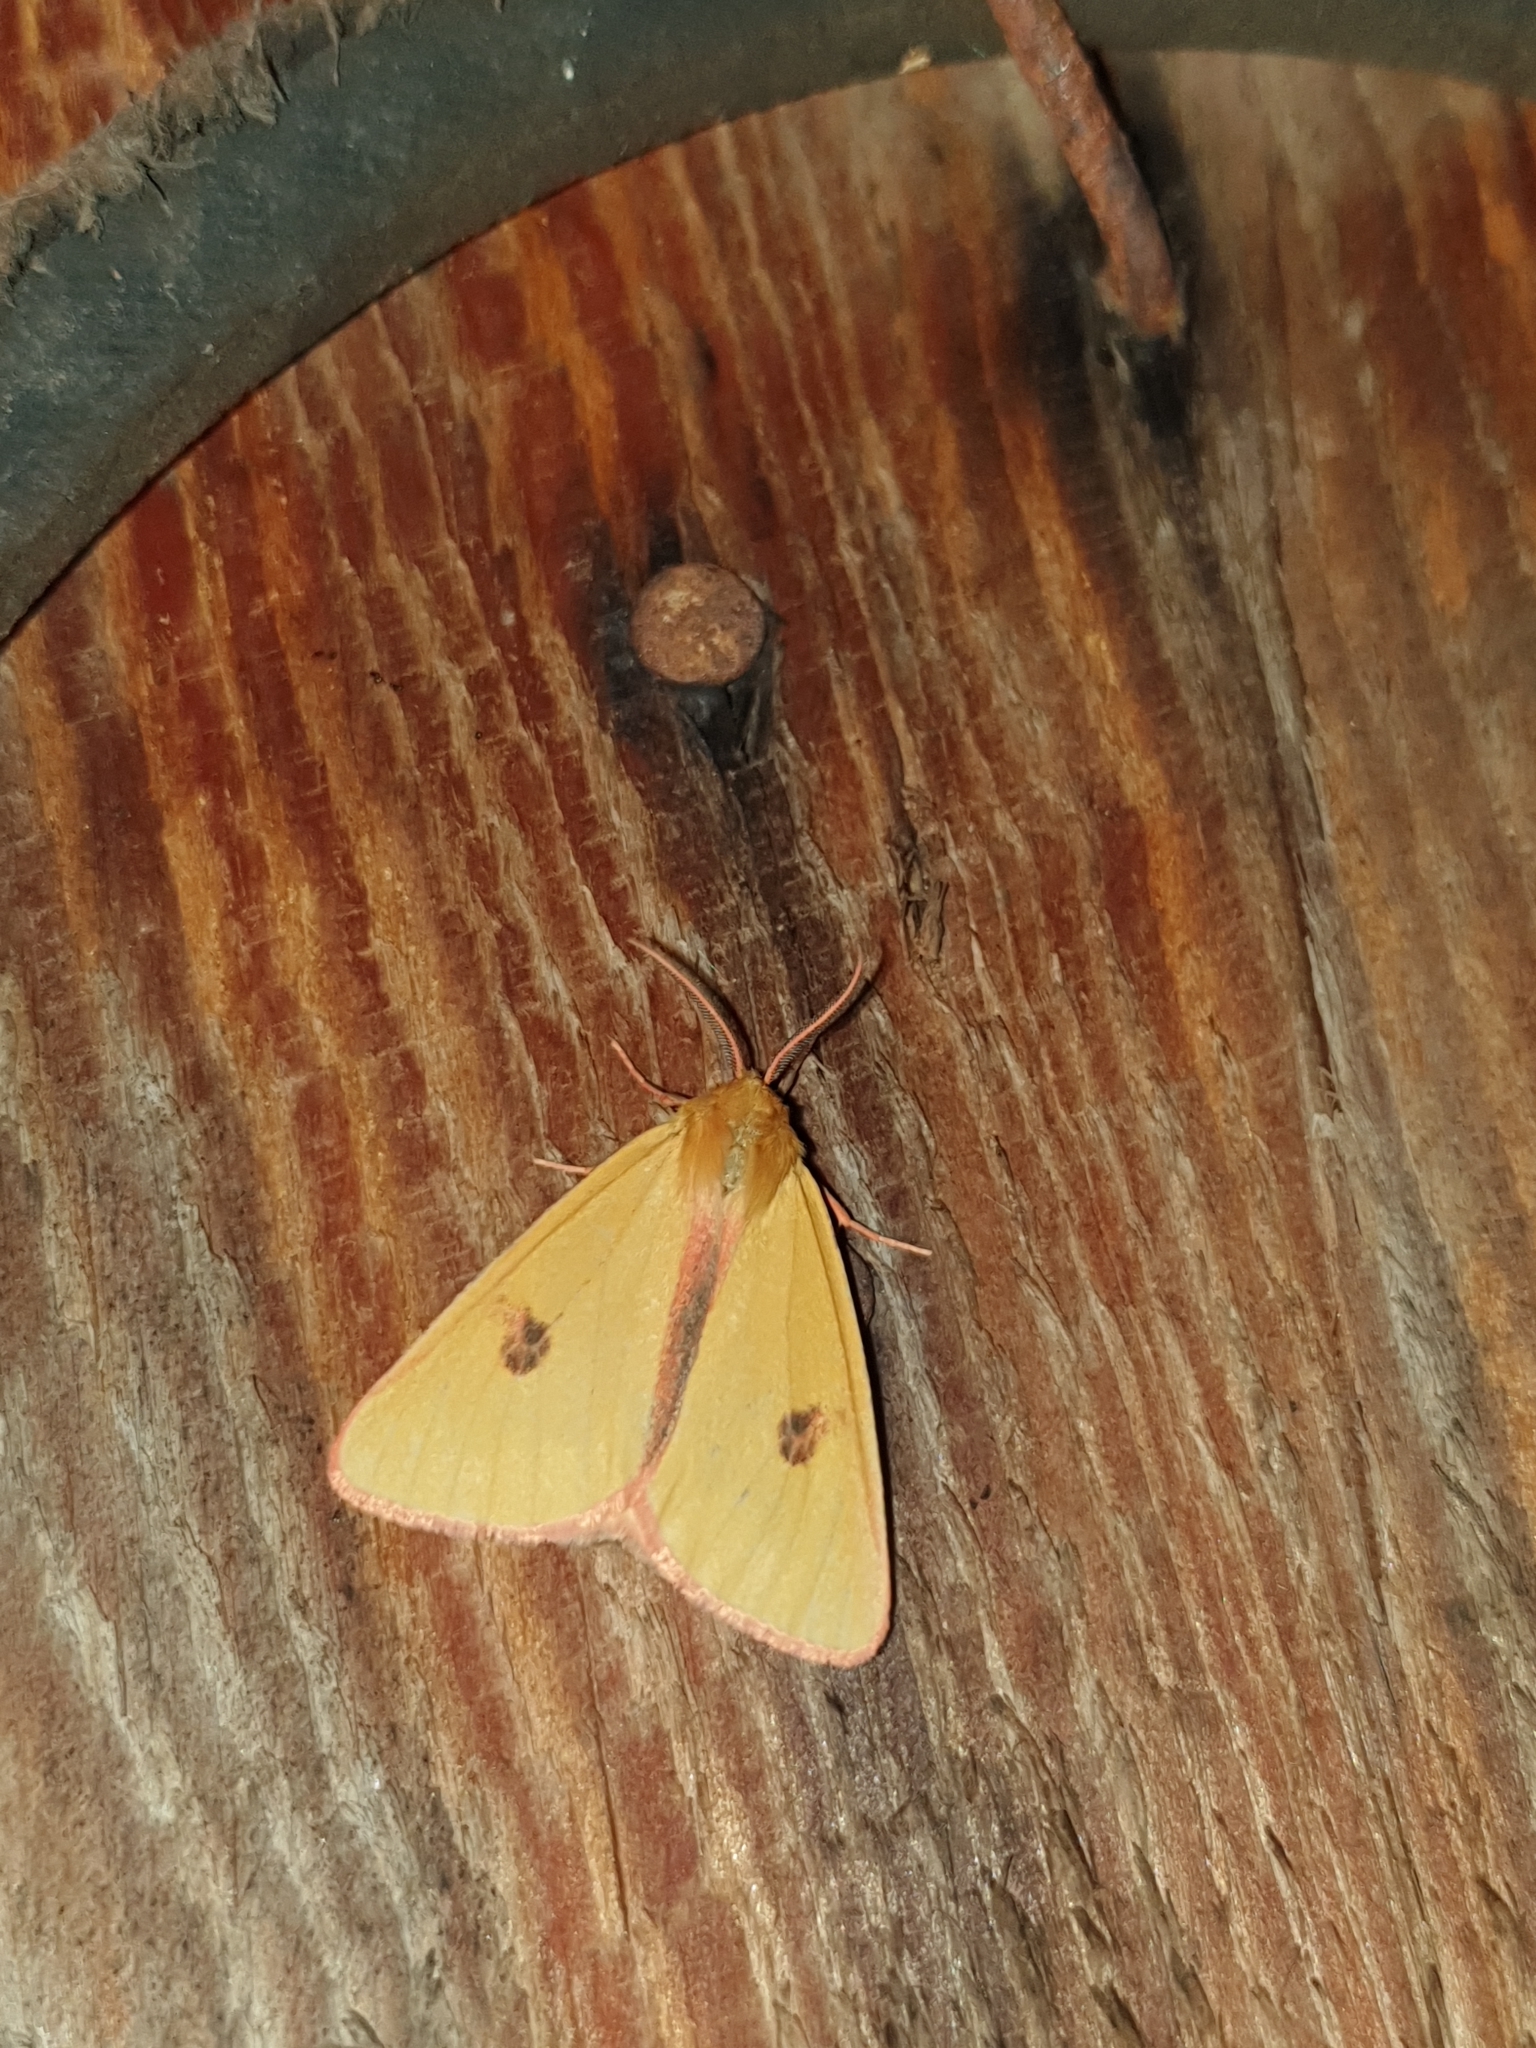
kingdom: Animalia
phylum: Arthropoda
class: Insecta
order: Lepidoptera
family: Erebidae
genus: Diacrisia
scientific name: Diacrisia sannio
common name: Clouded buff
